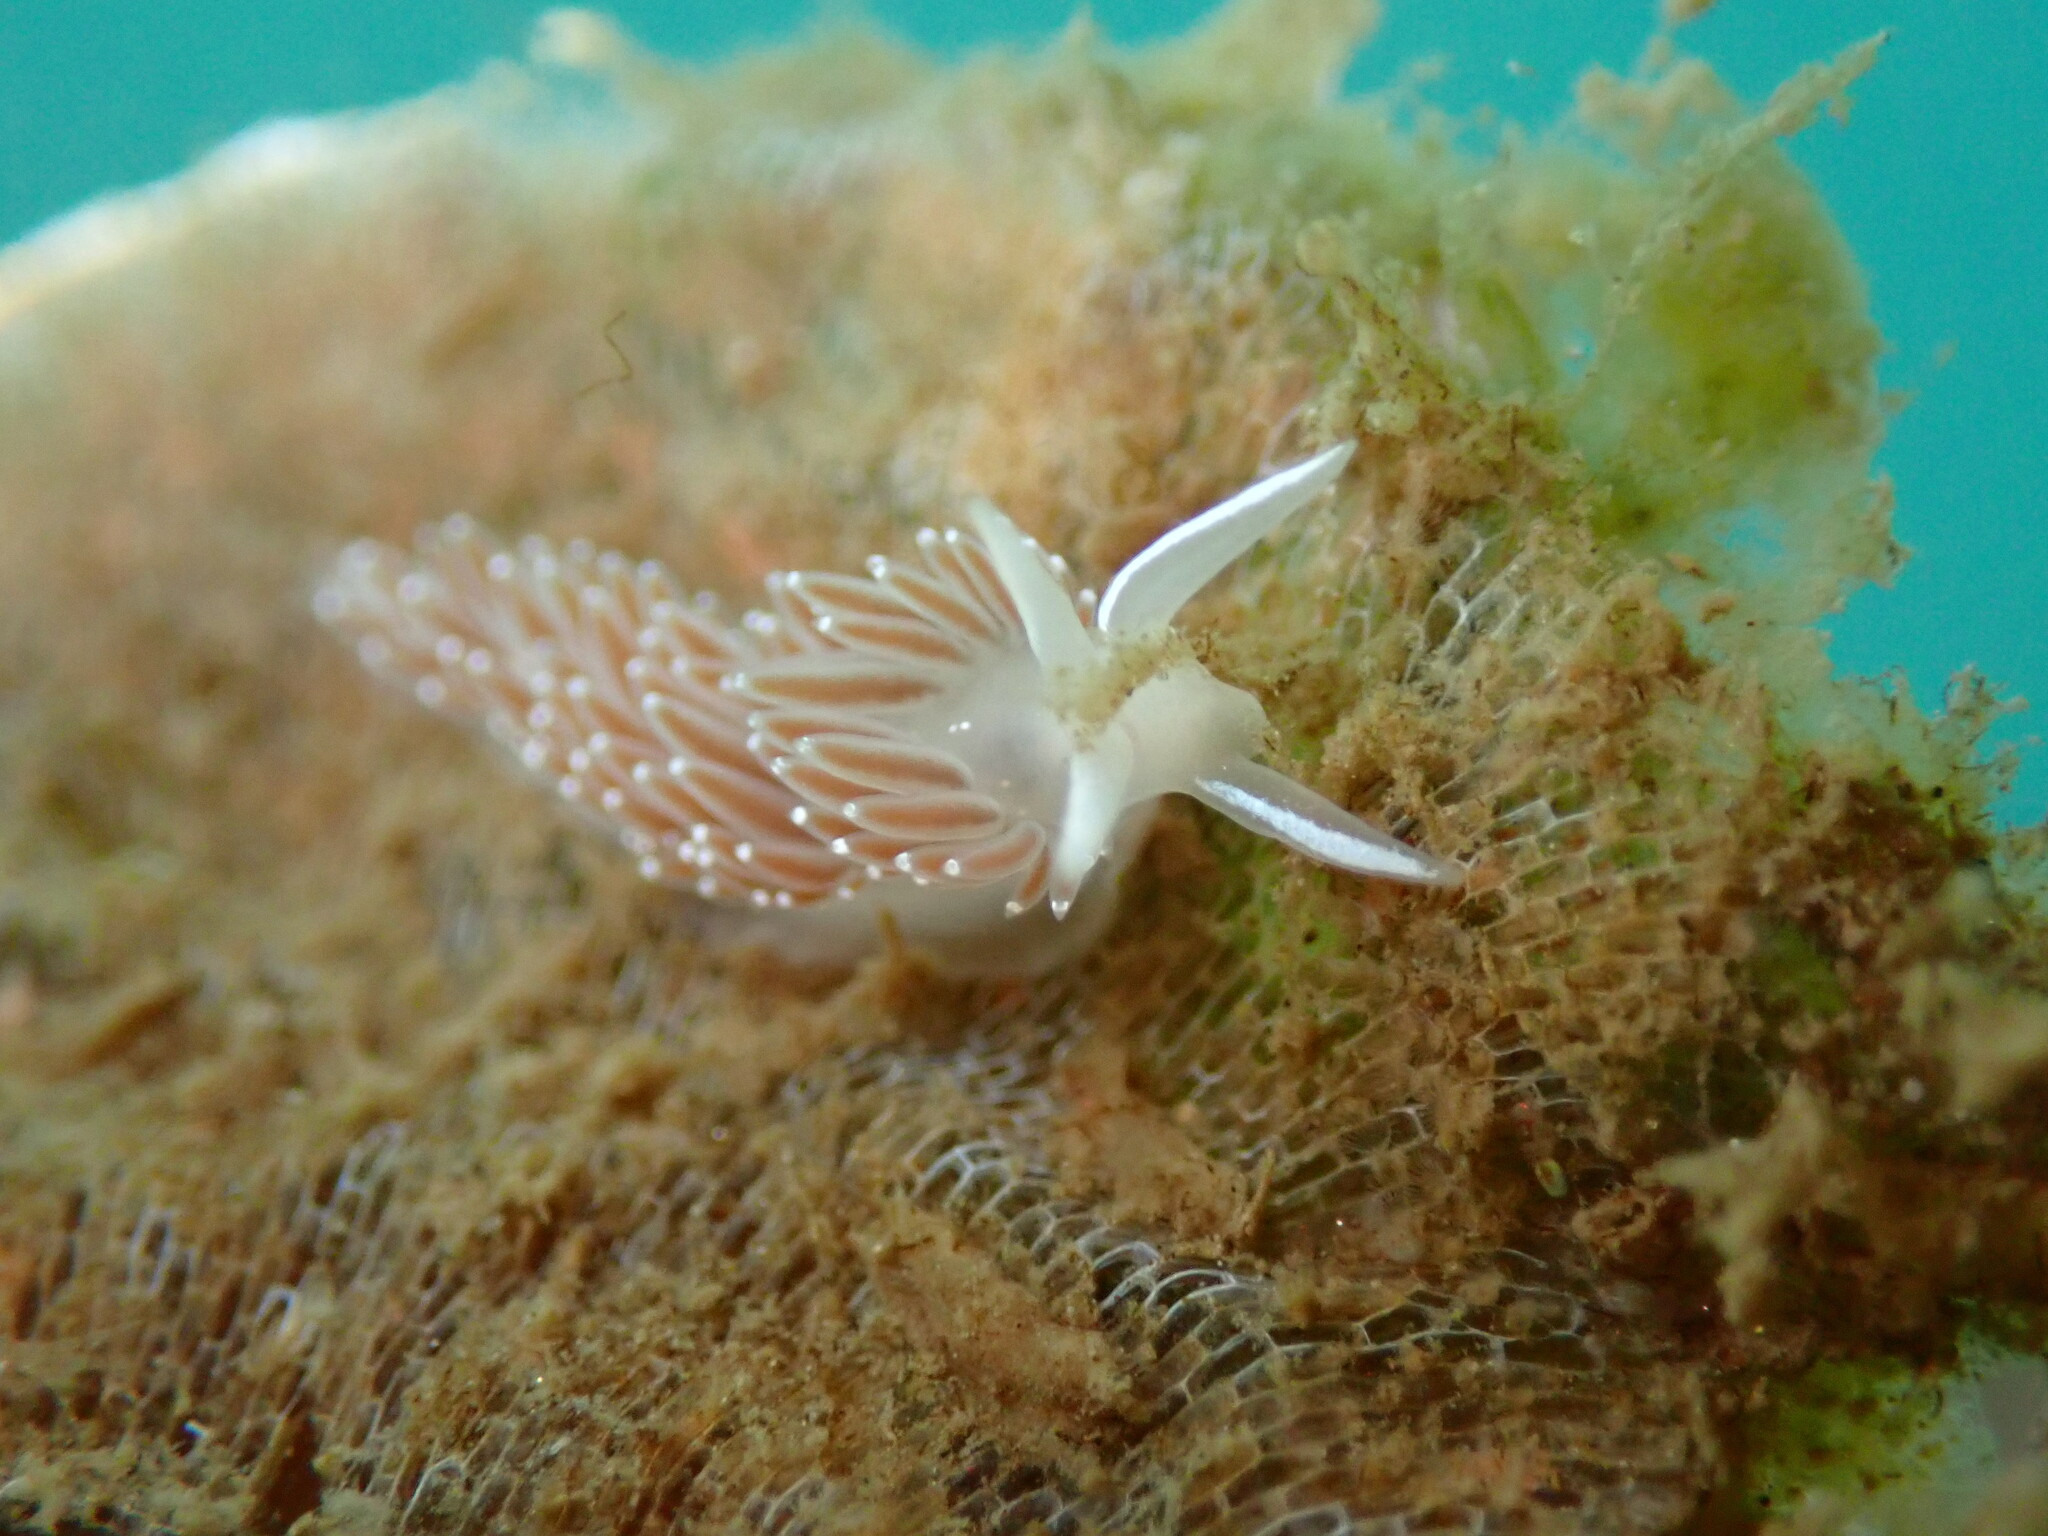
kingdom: Animalia
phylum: Mollusca
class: Gastropoda
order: Nudibranchia
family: Coryphellidae
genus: Coryphella
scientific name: Coryphella verrucosa
